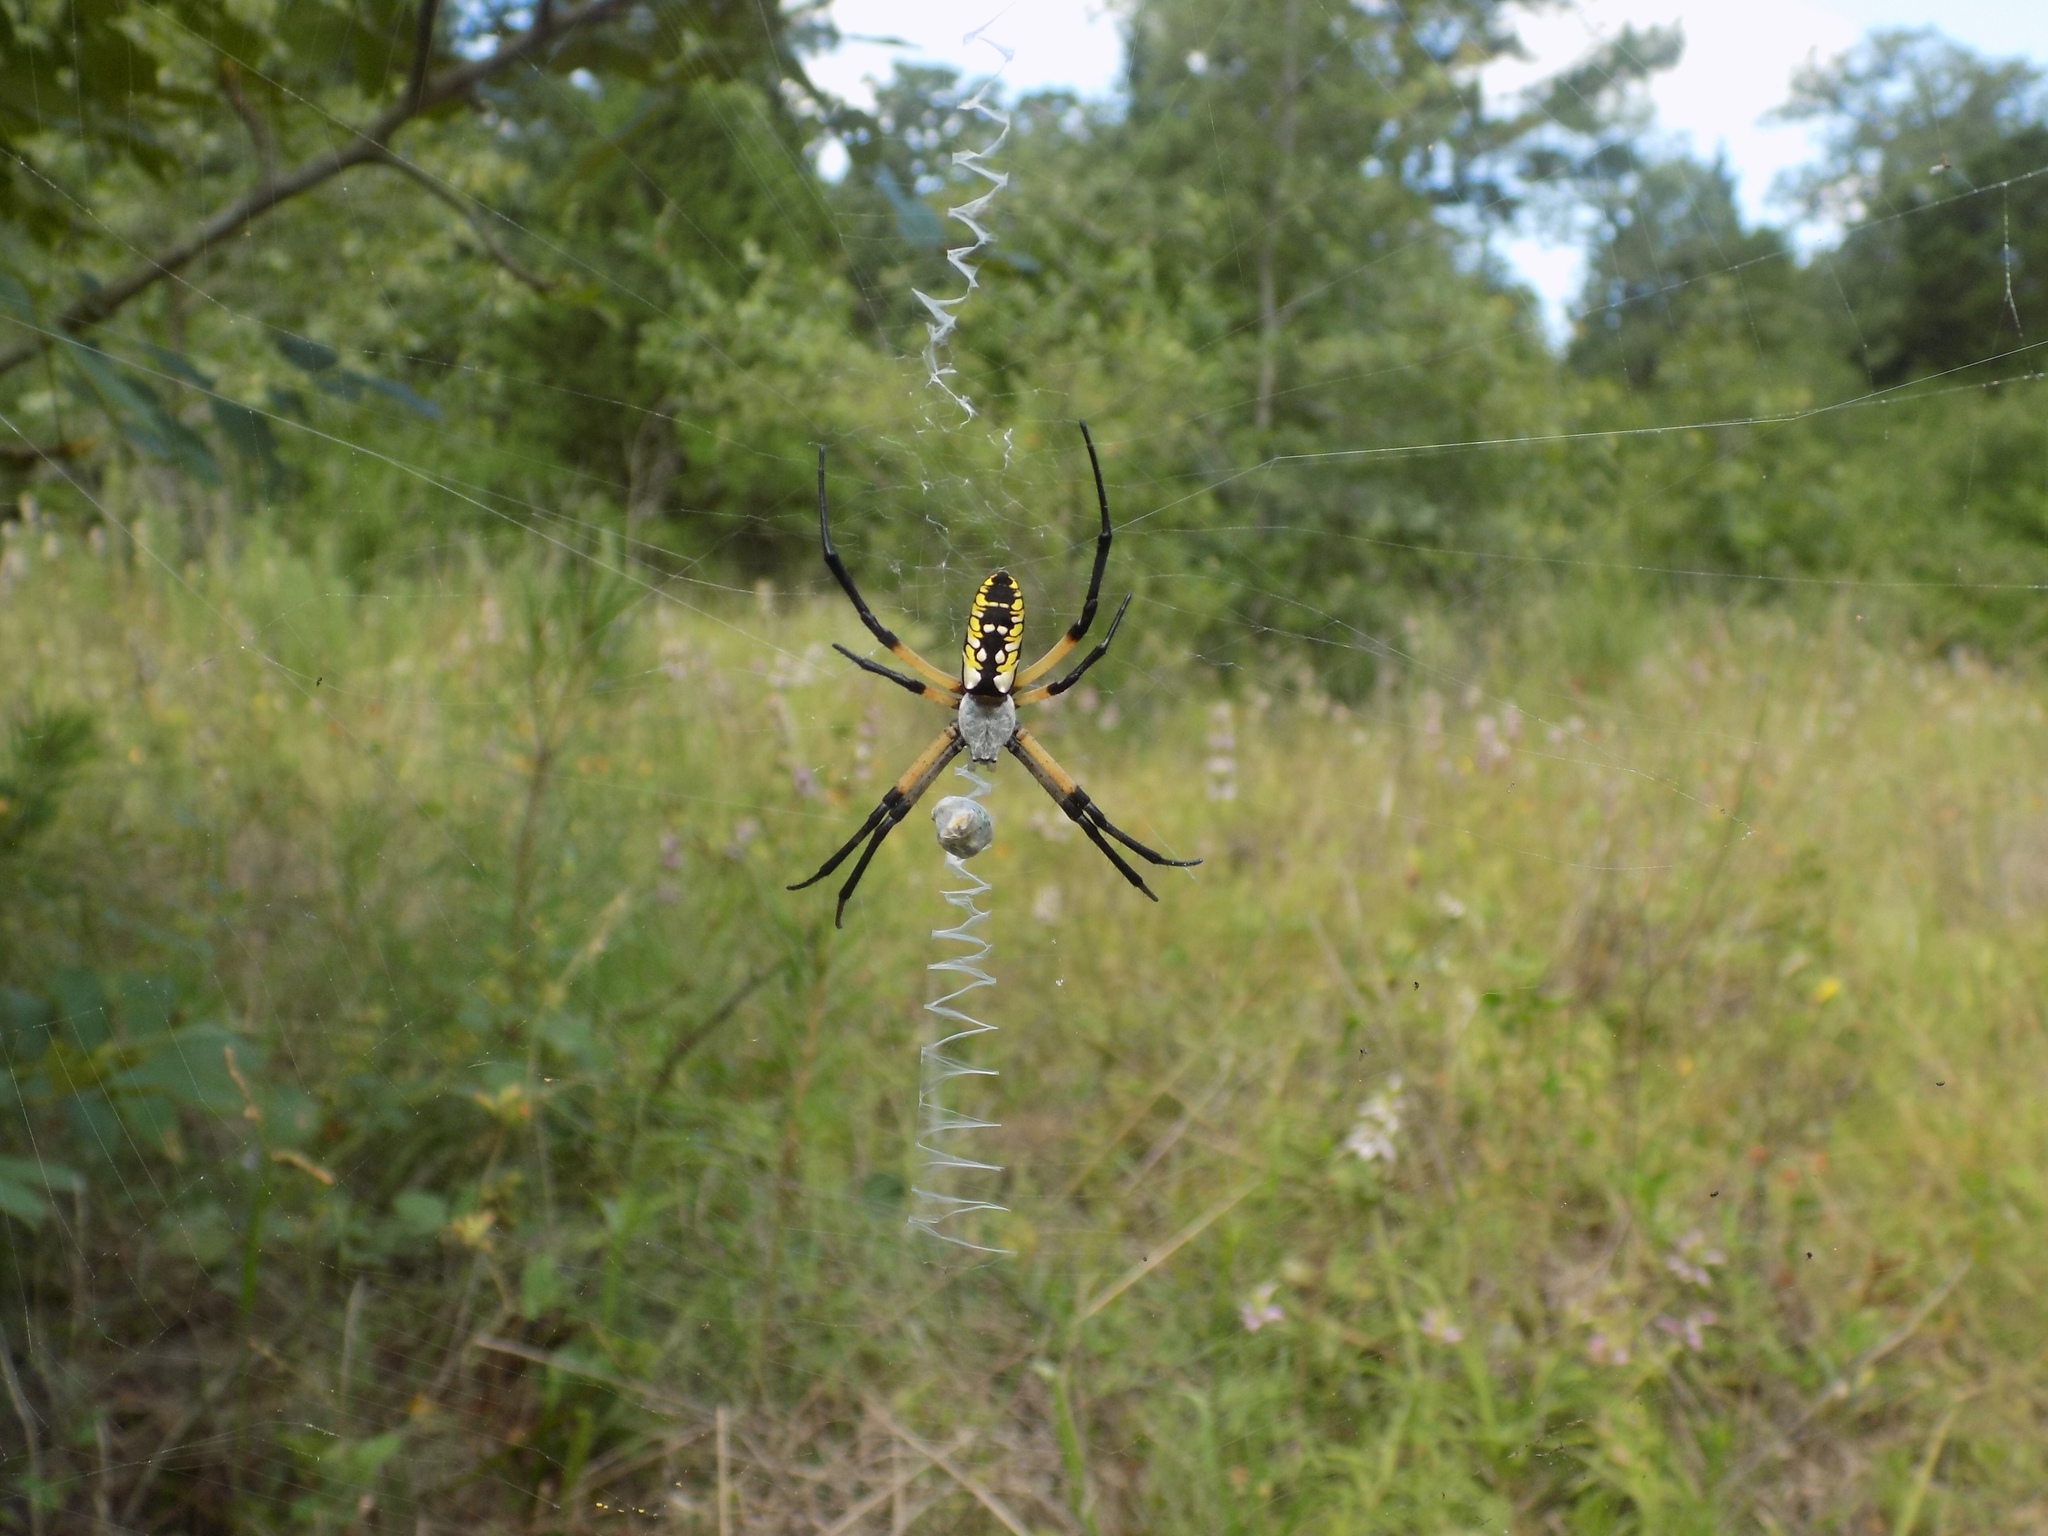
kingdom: Animalia
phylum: Arthropoda
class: Arachnida
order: Araneae
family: Araneidae
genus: Argiope
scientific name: Argiope aurantia
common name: Orb weavers
